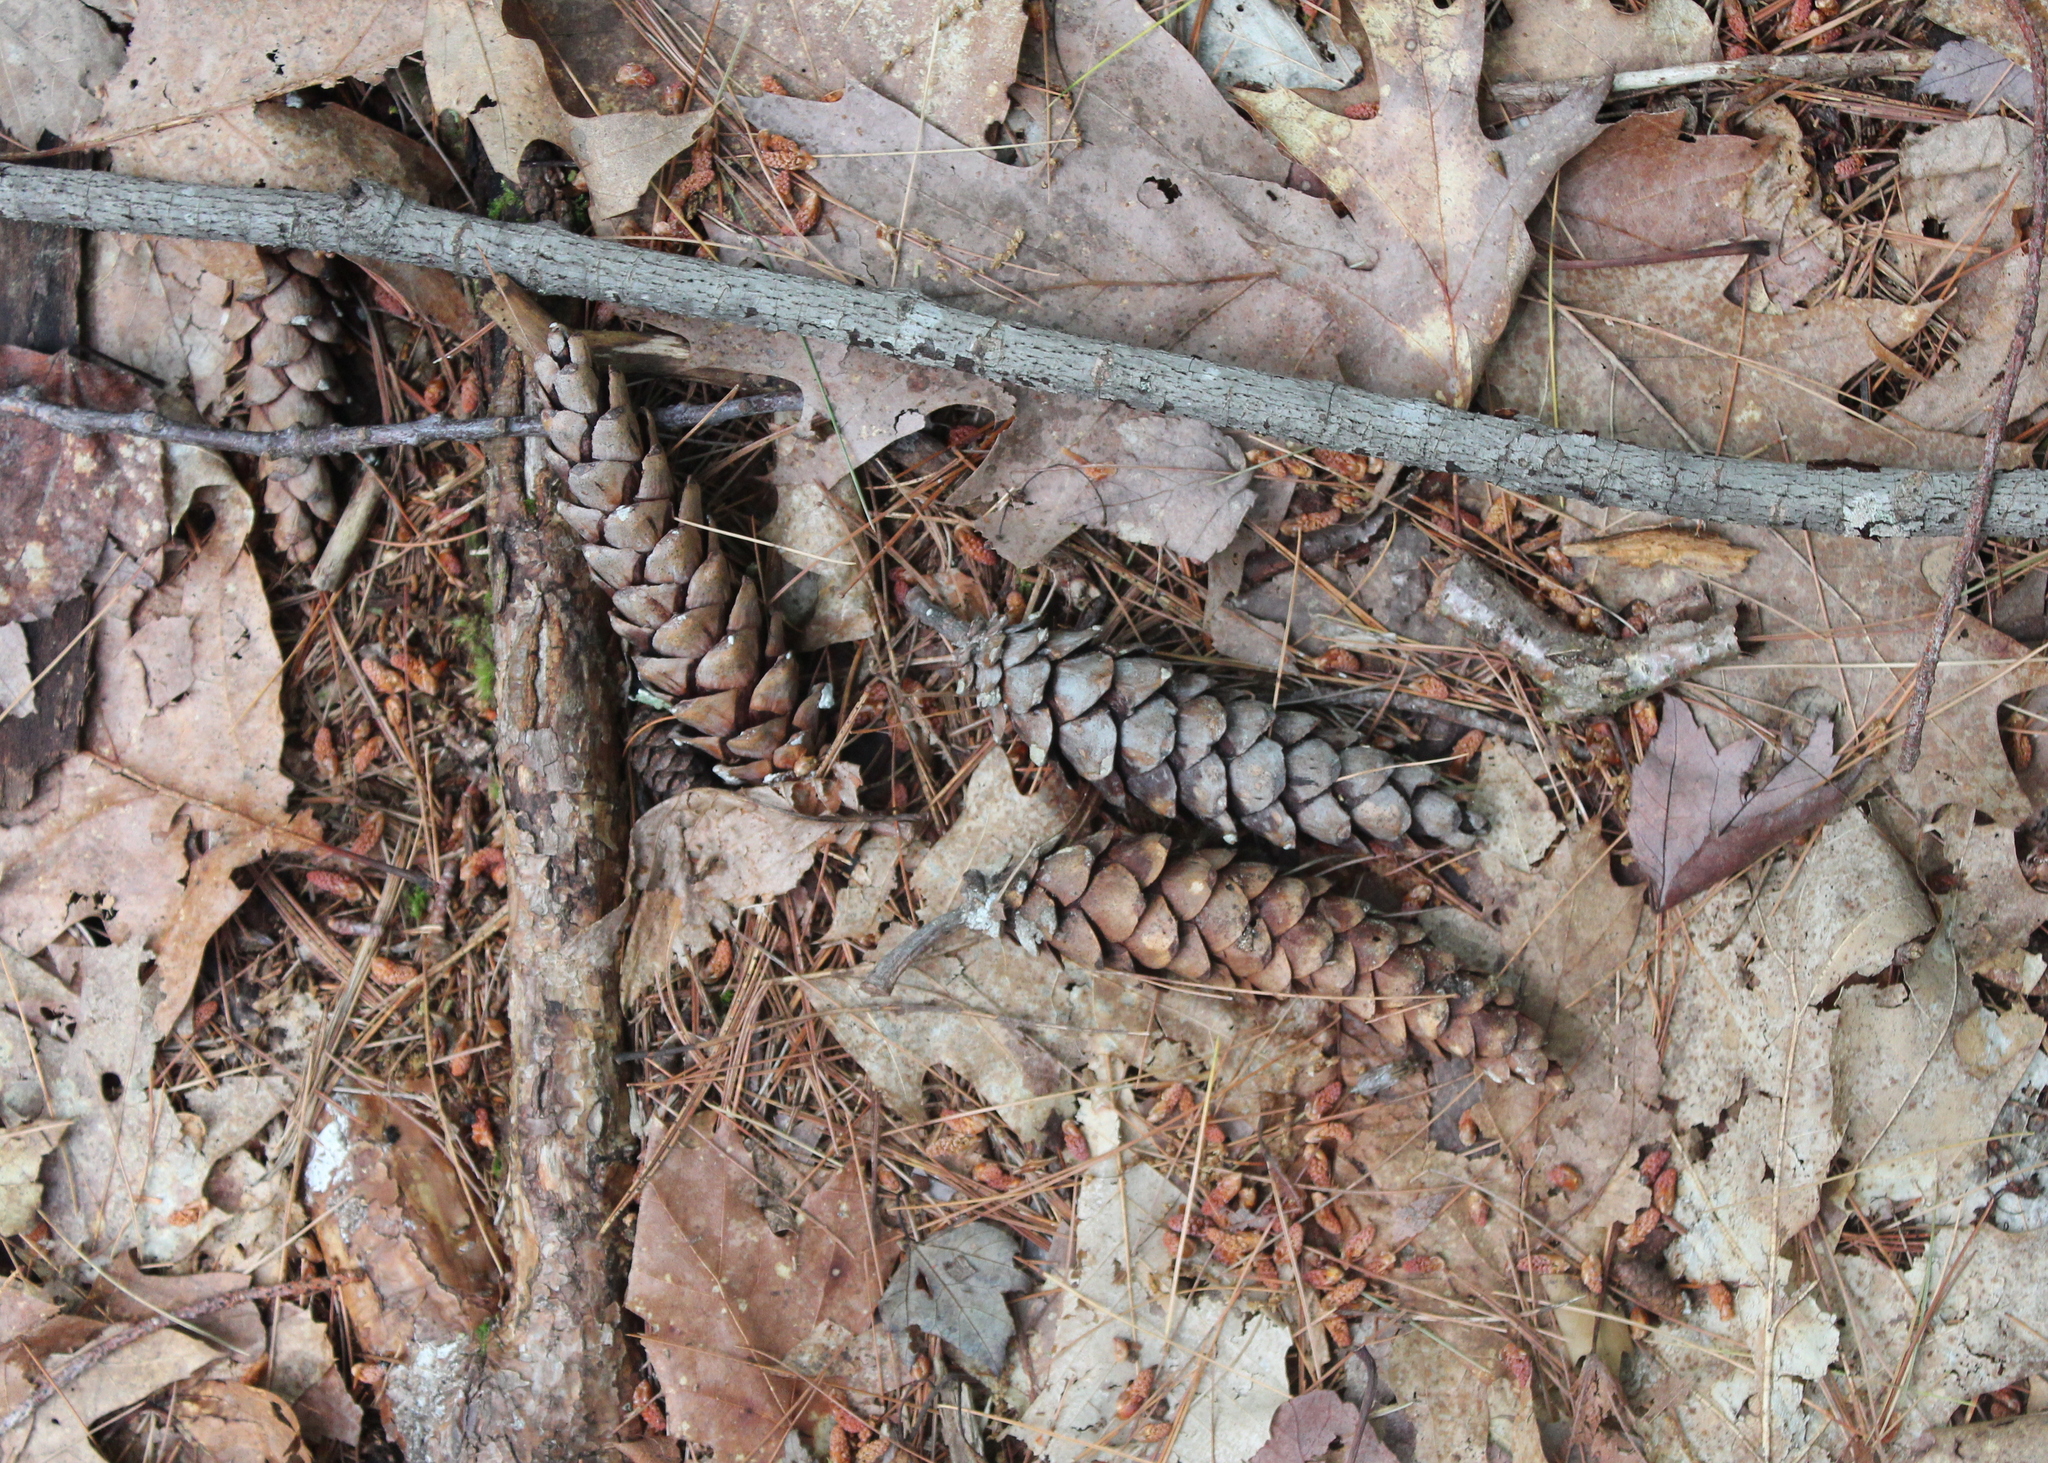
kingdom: Plantae
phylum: Tracheophyta
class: Pinopsida
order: Pinales
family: Pinaceae
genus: Pinus
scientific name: Pinus strobus
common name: Weymouth pine
